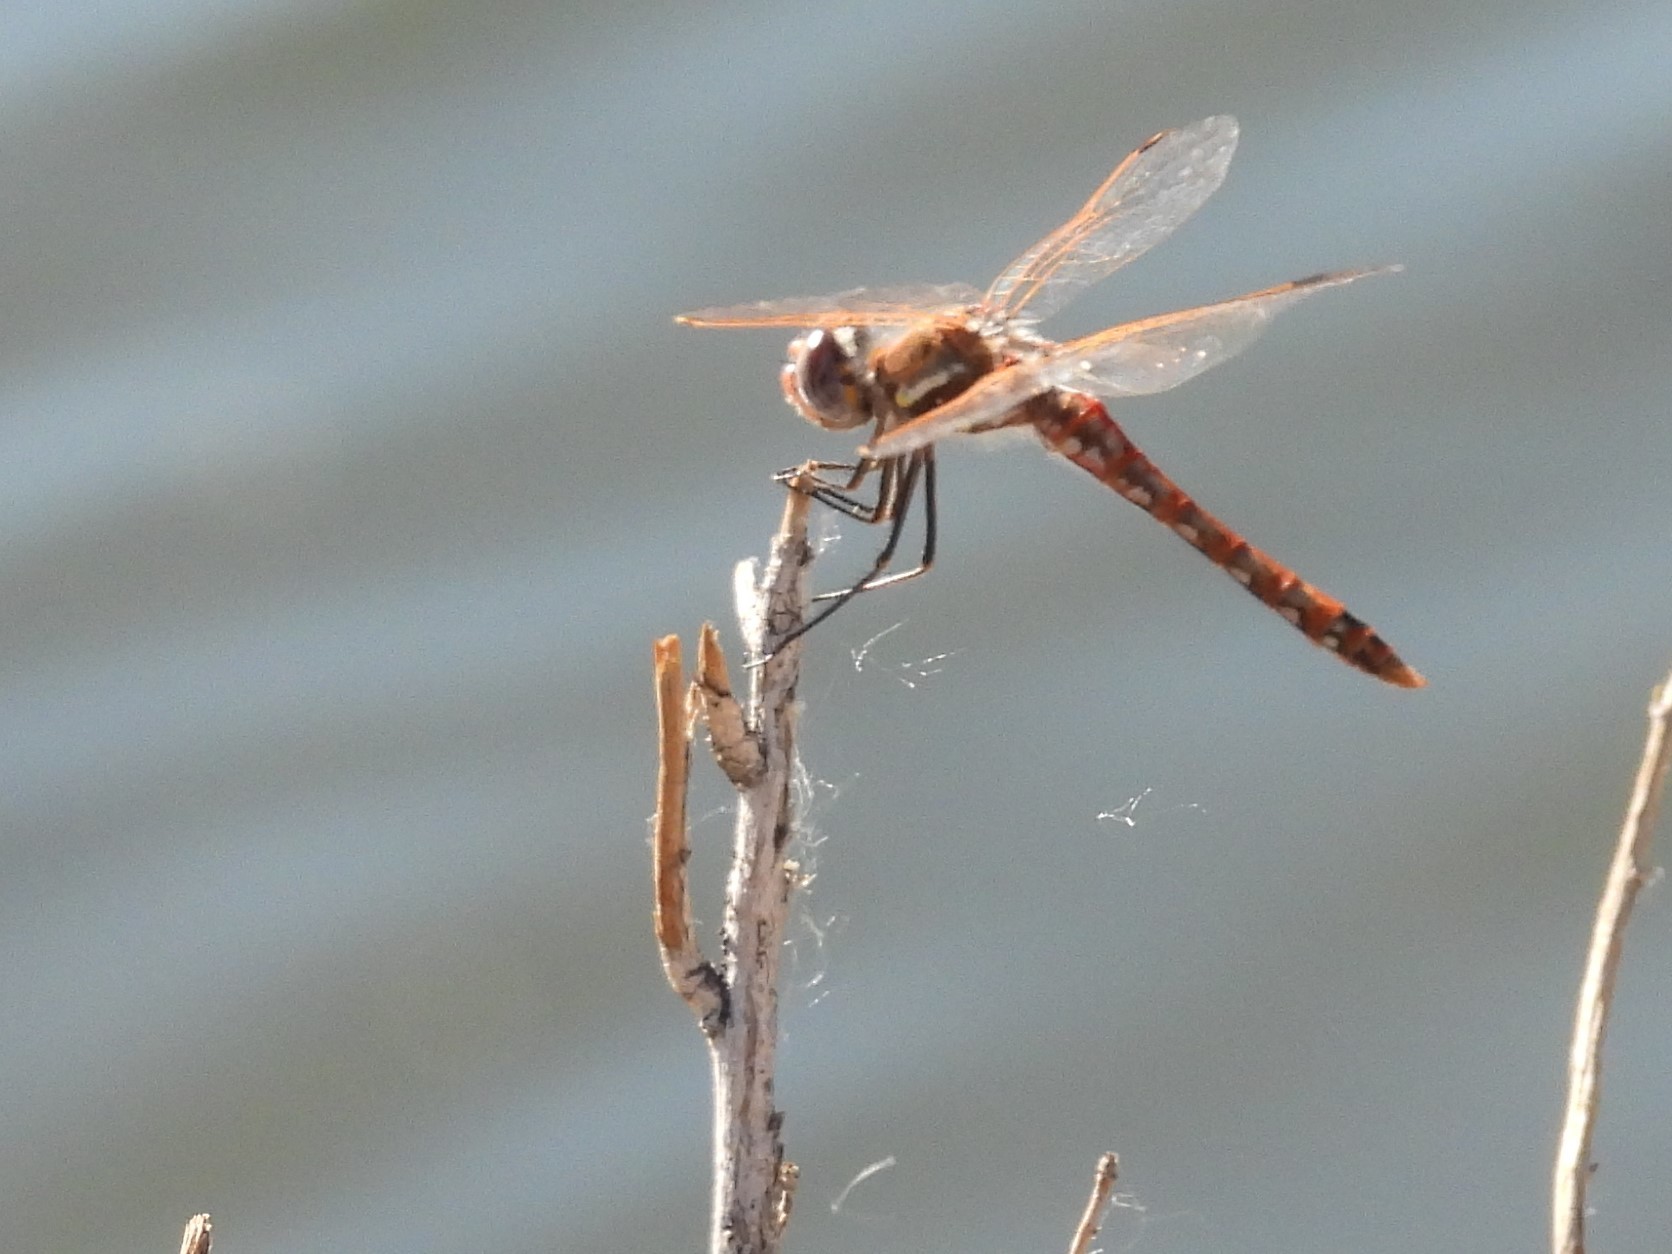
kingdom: Animalia
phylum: Arthropoda
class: Insecta
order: Odonata
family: Libellulidae
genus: Sympetrum
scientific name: Sympetrum corruptum
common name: Variegated meadowhawk
